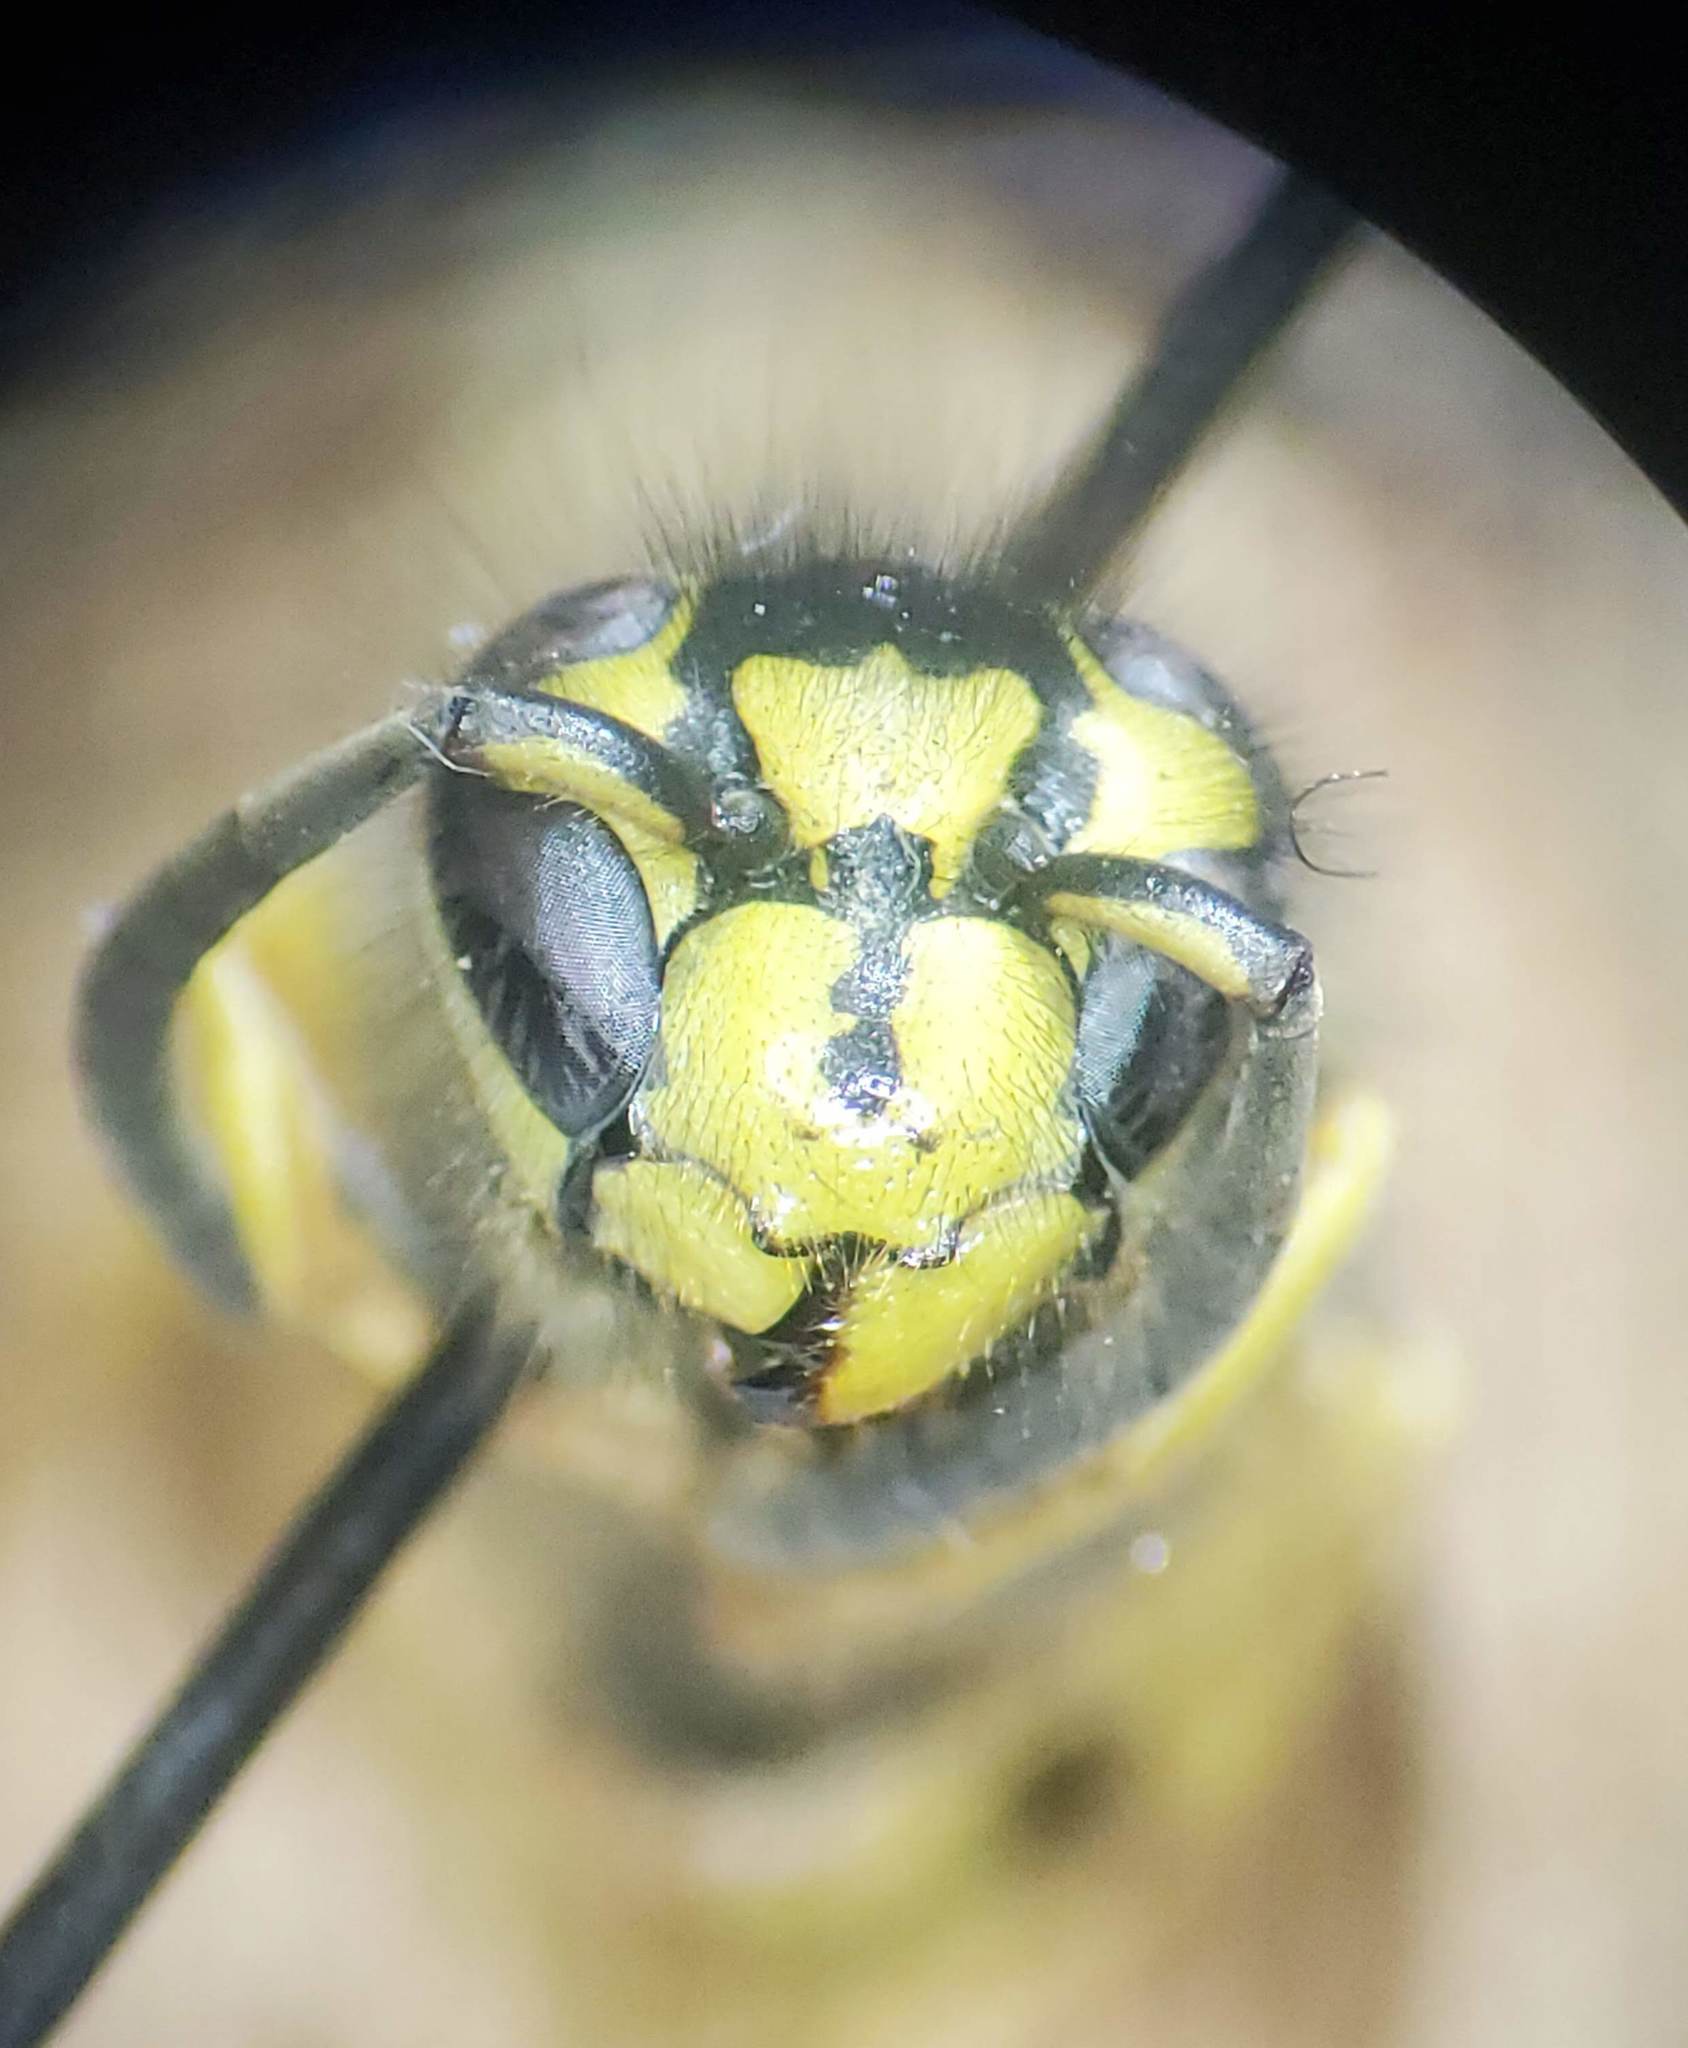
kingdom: Animalia
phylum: Arthropoda
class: Insecta
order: Hymenoptera
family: Vespidae
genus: Vespula
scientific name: Vespula pensylvanica
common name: Western yellowjacket
